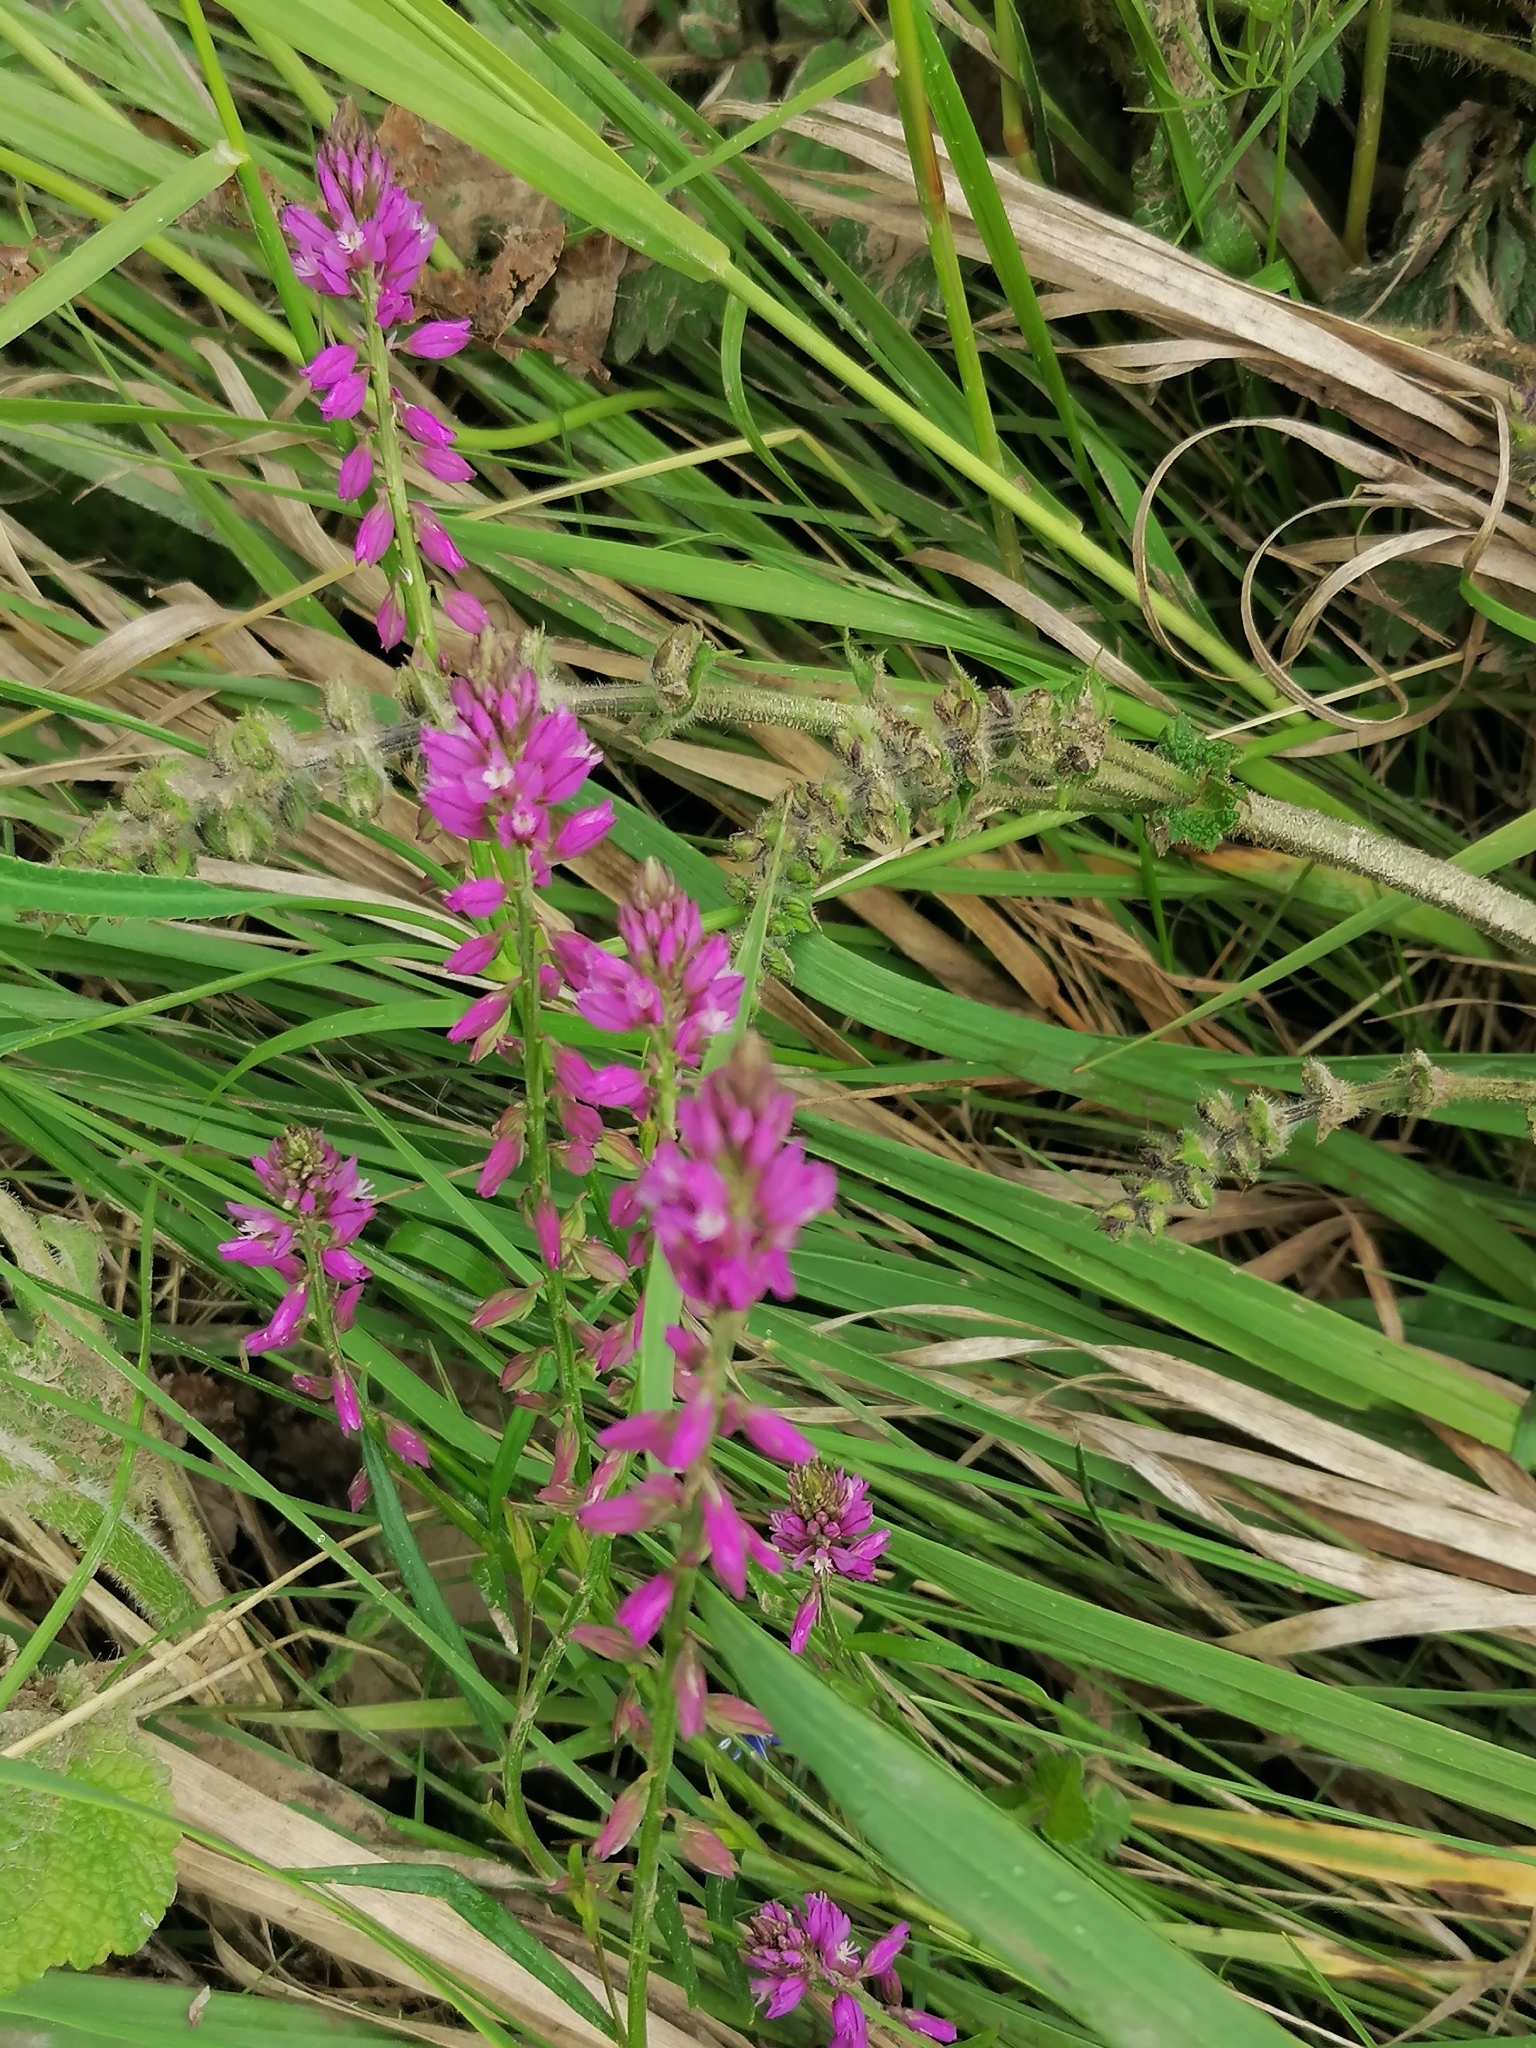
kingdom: Plantae
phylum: Tracheophyta
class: Magnoliopsida
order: Fabales
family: Polygalaceae
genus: Polygala
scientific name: Polygala comosa
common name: Tufted milkwort
